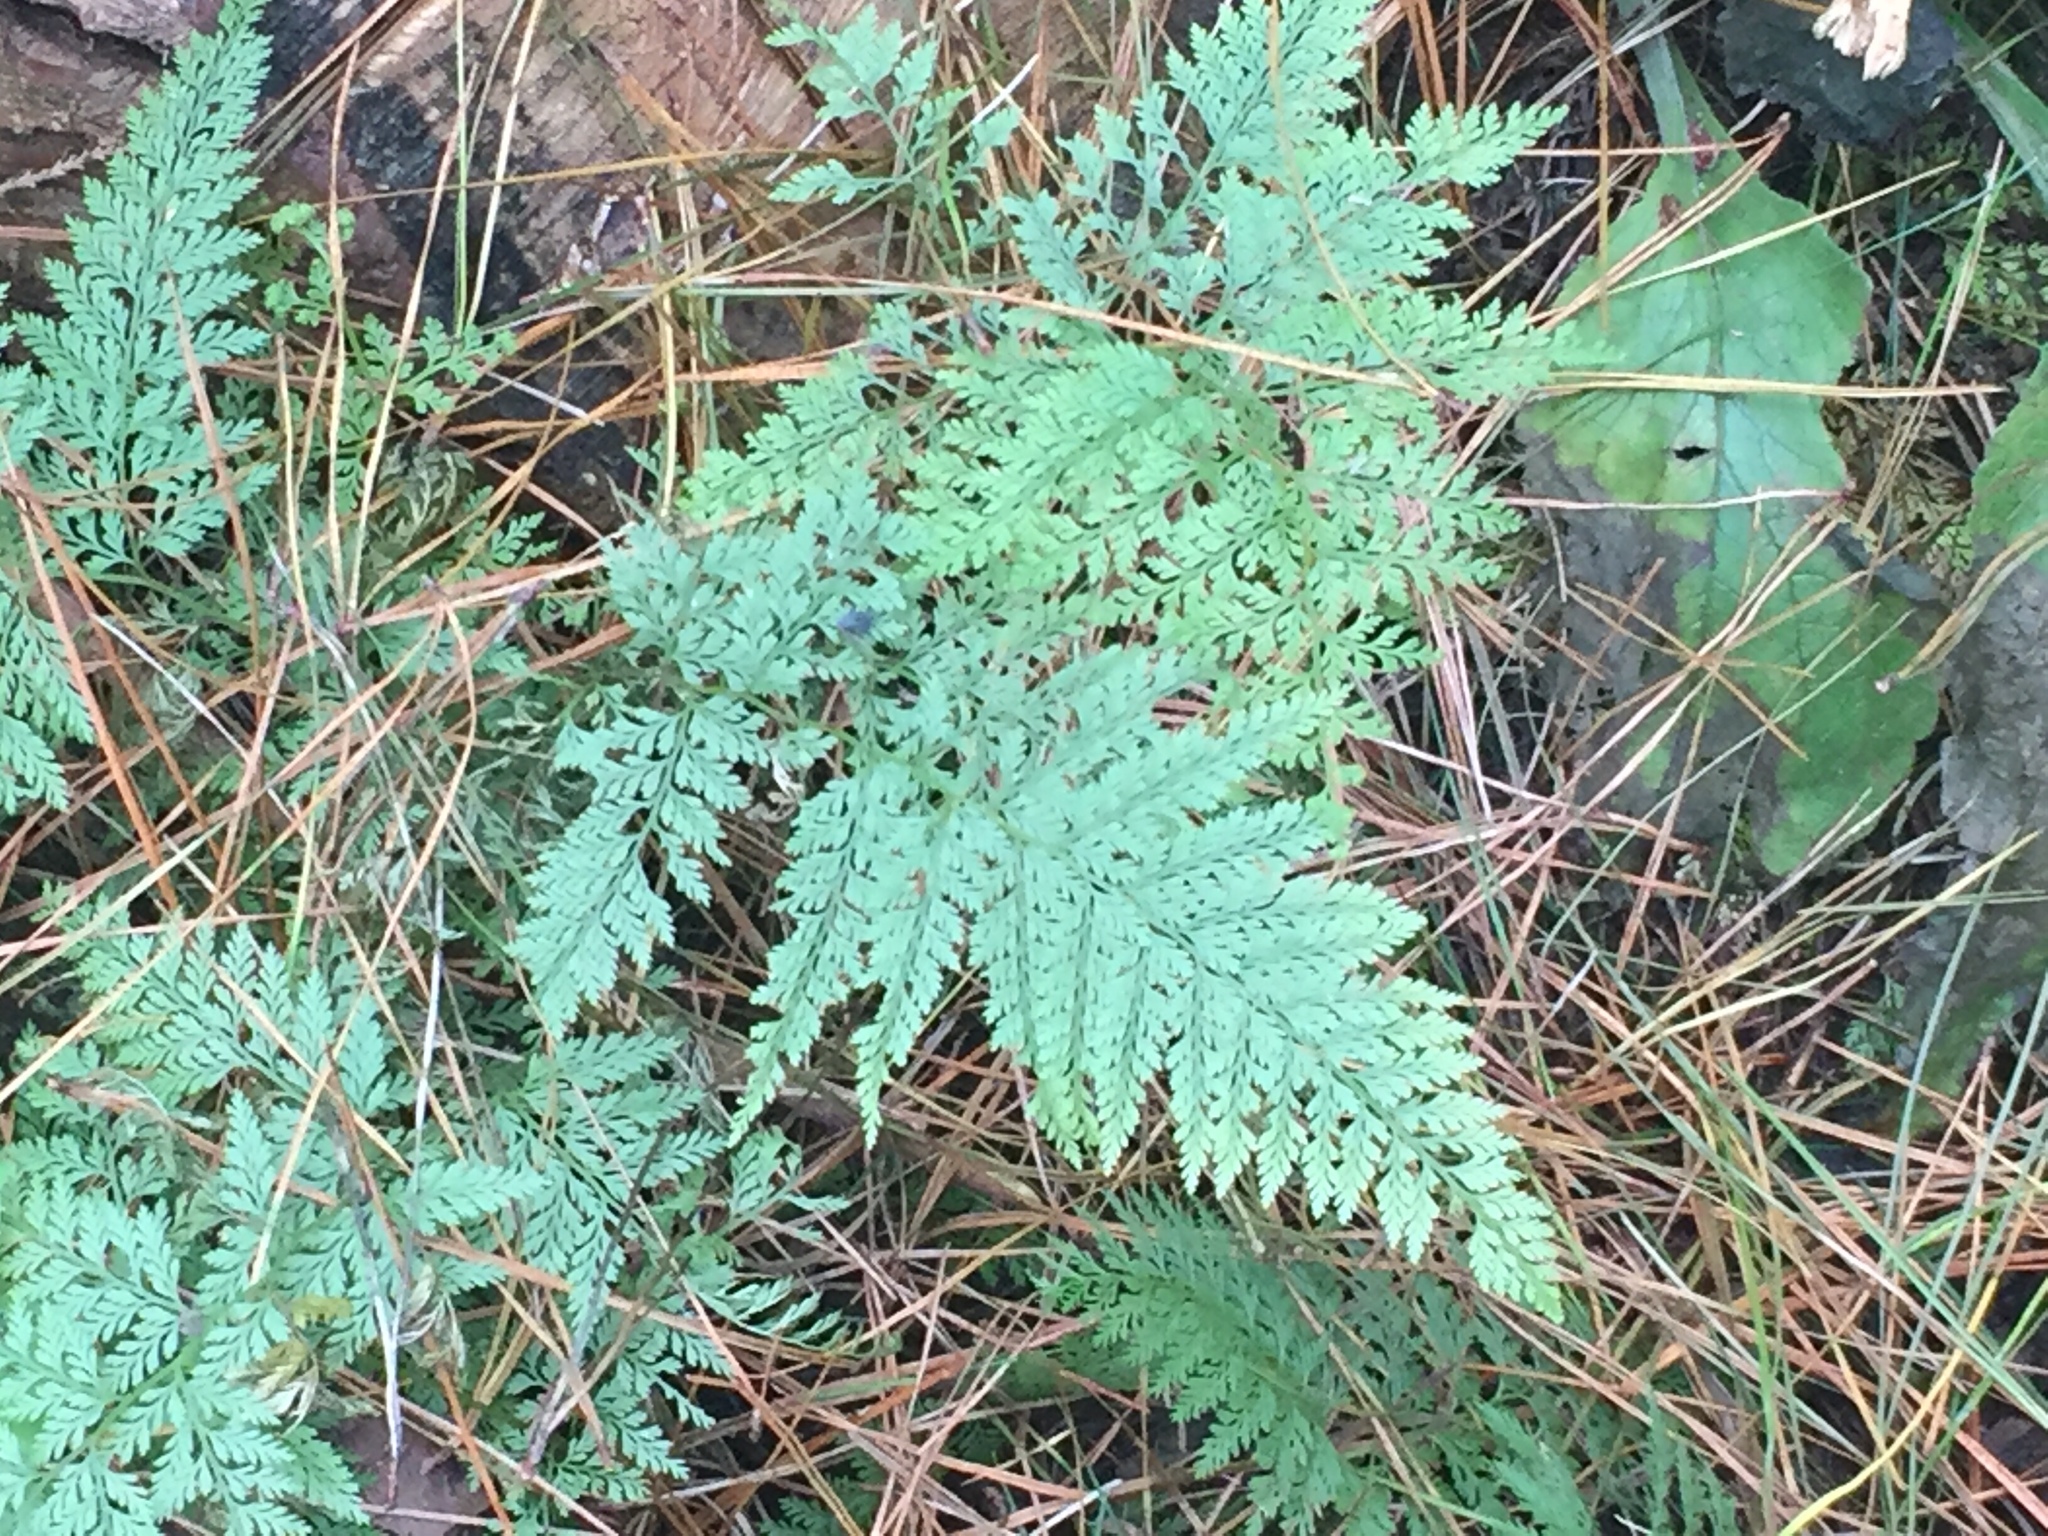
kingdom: Plantae
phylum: Tracheophyta
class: Polypodiopsida
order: Polypodiales
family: Dennstaedtiaceae
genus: Paesia
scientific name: Paesia scaberula
